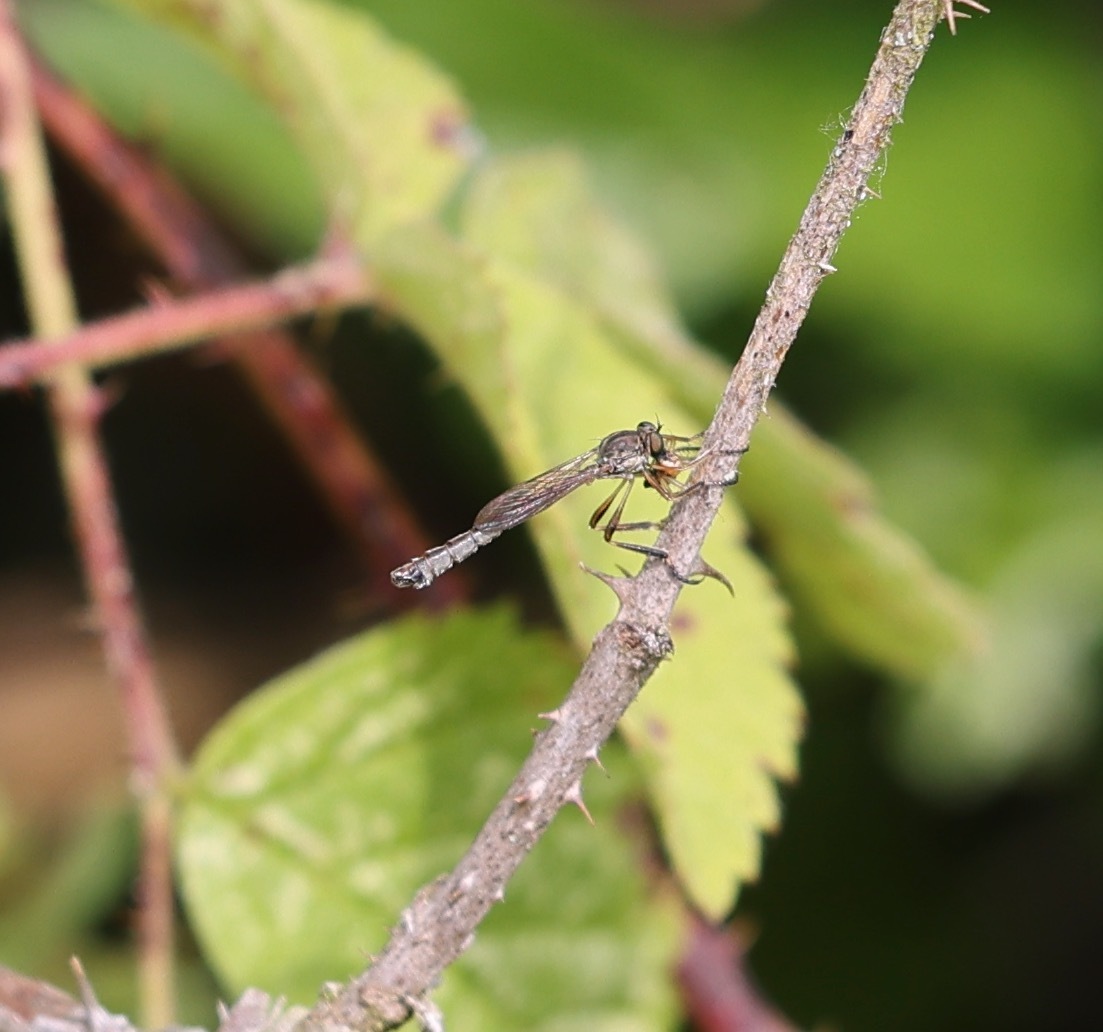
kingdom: Animalia
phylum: Arthropoda
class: Insecta
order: Diptera
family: Asilidae
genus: Leptogaster
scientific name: Leptogaster cylindrica
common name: Striped slender robberfly
